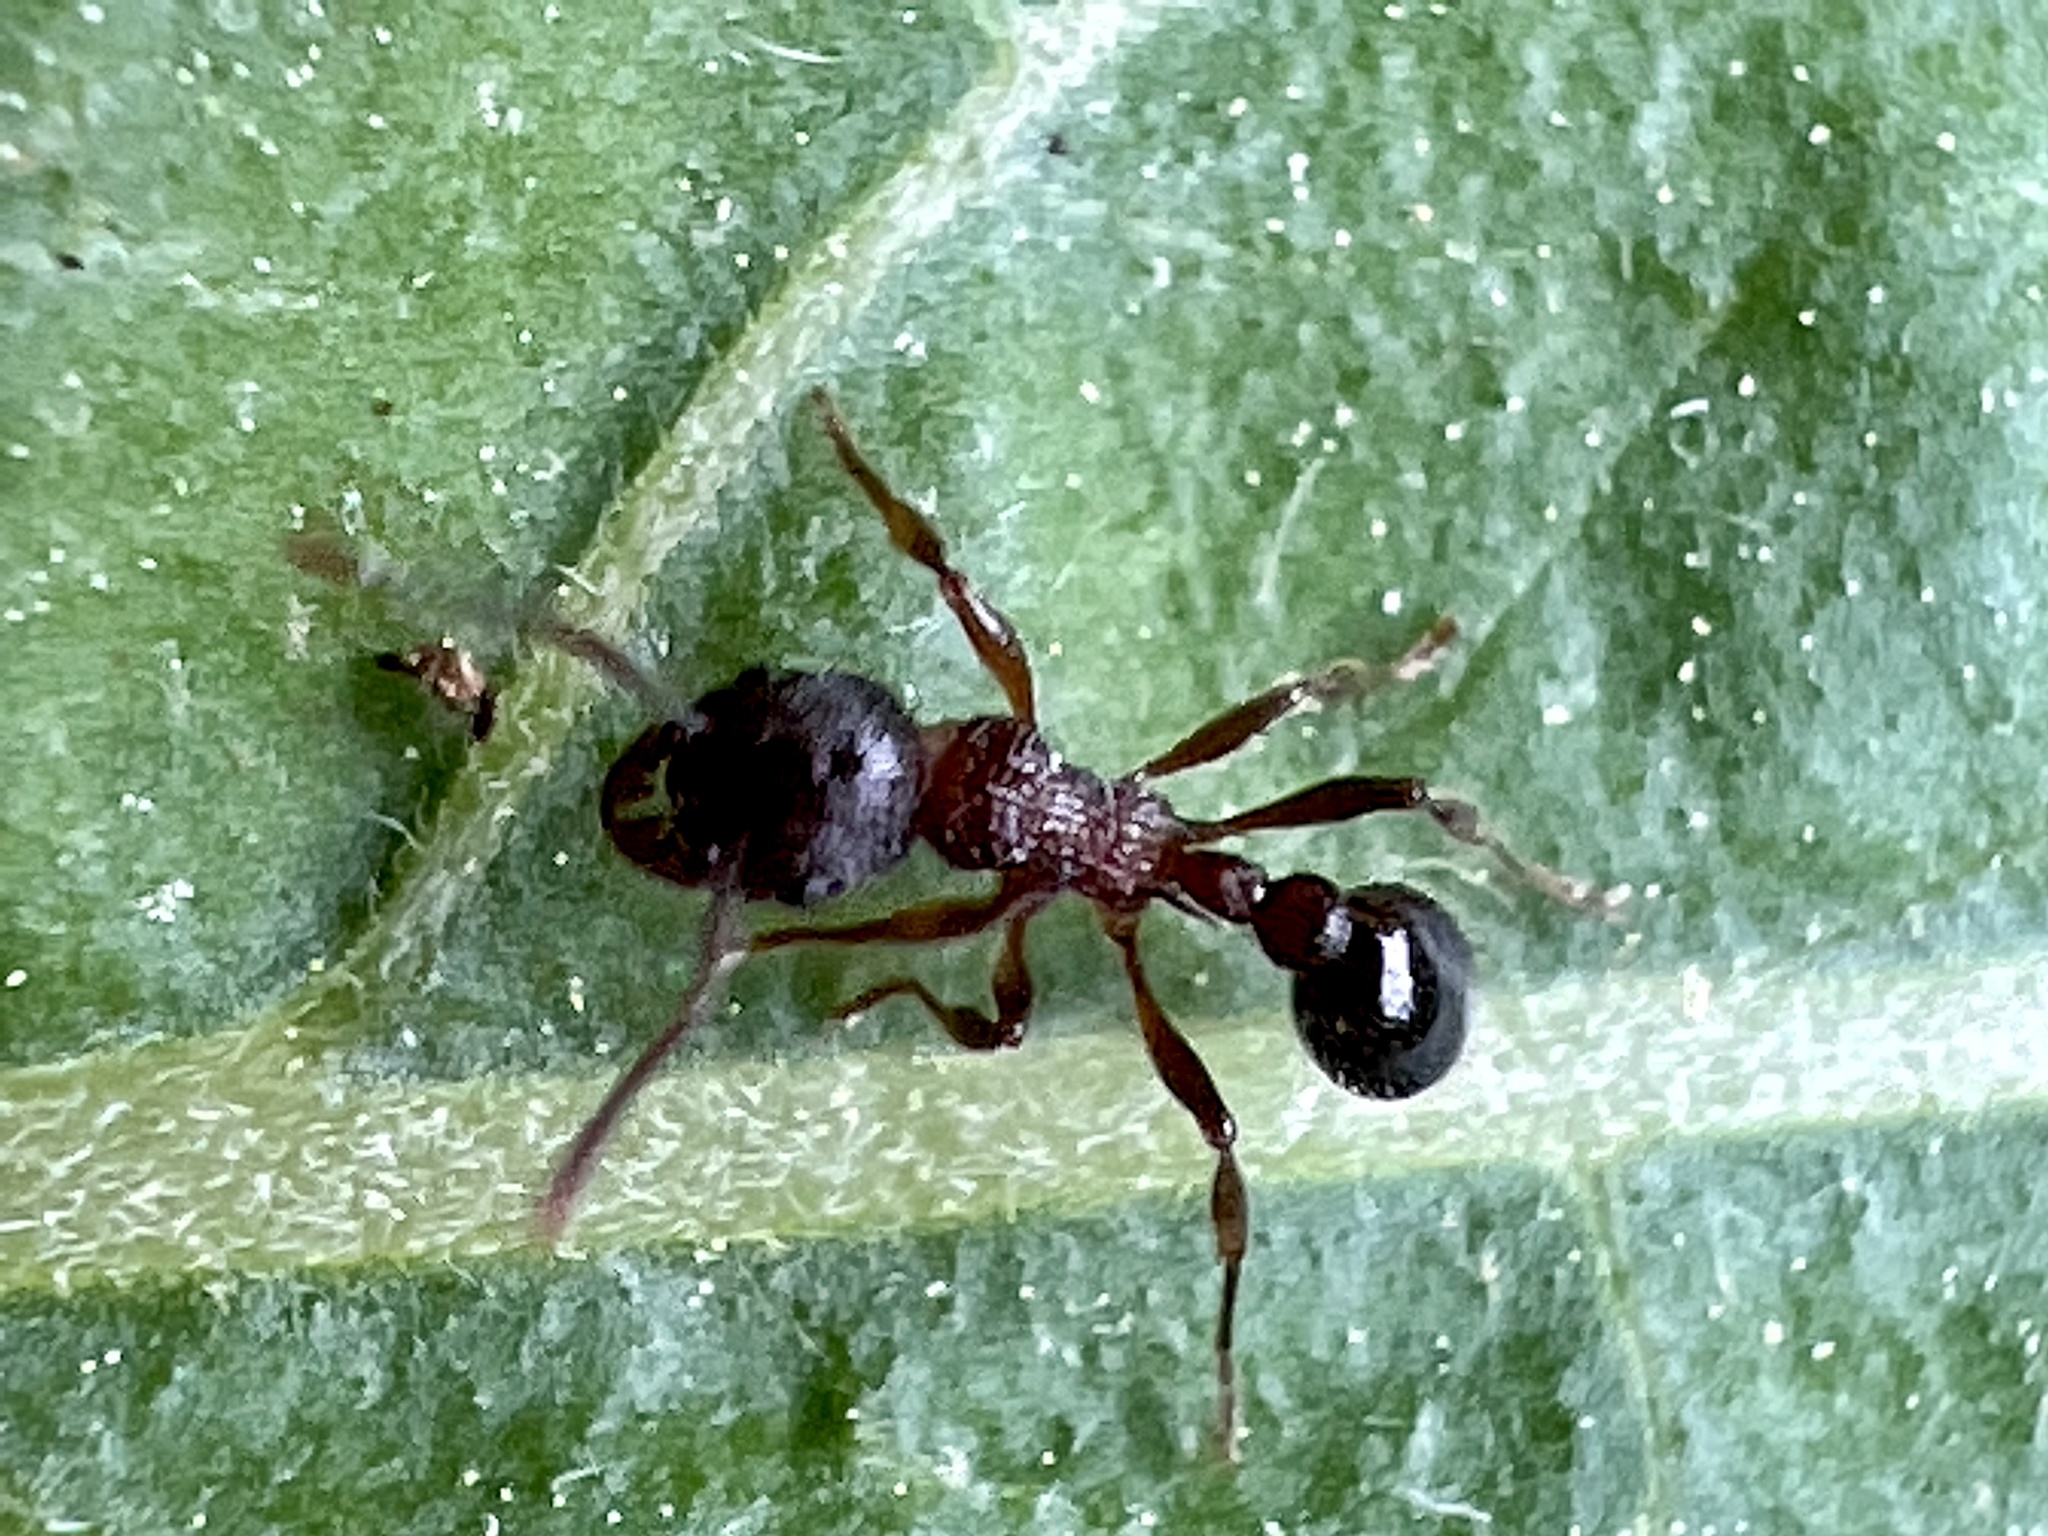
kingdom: Animalia
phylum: Arthropoda
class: Insecta
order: Hymenoptera
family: Formicidae
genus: Myrmica
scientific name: Myrmica
